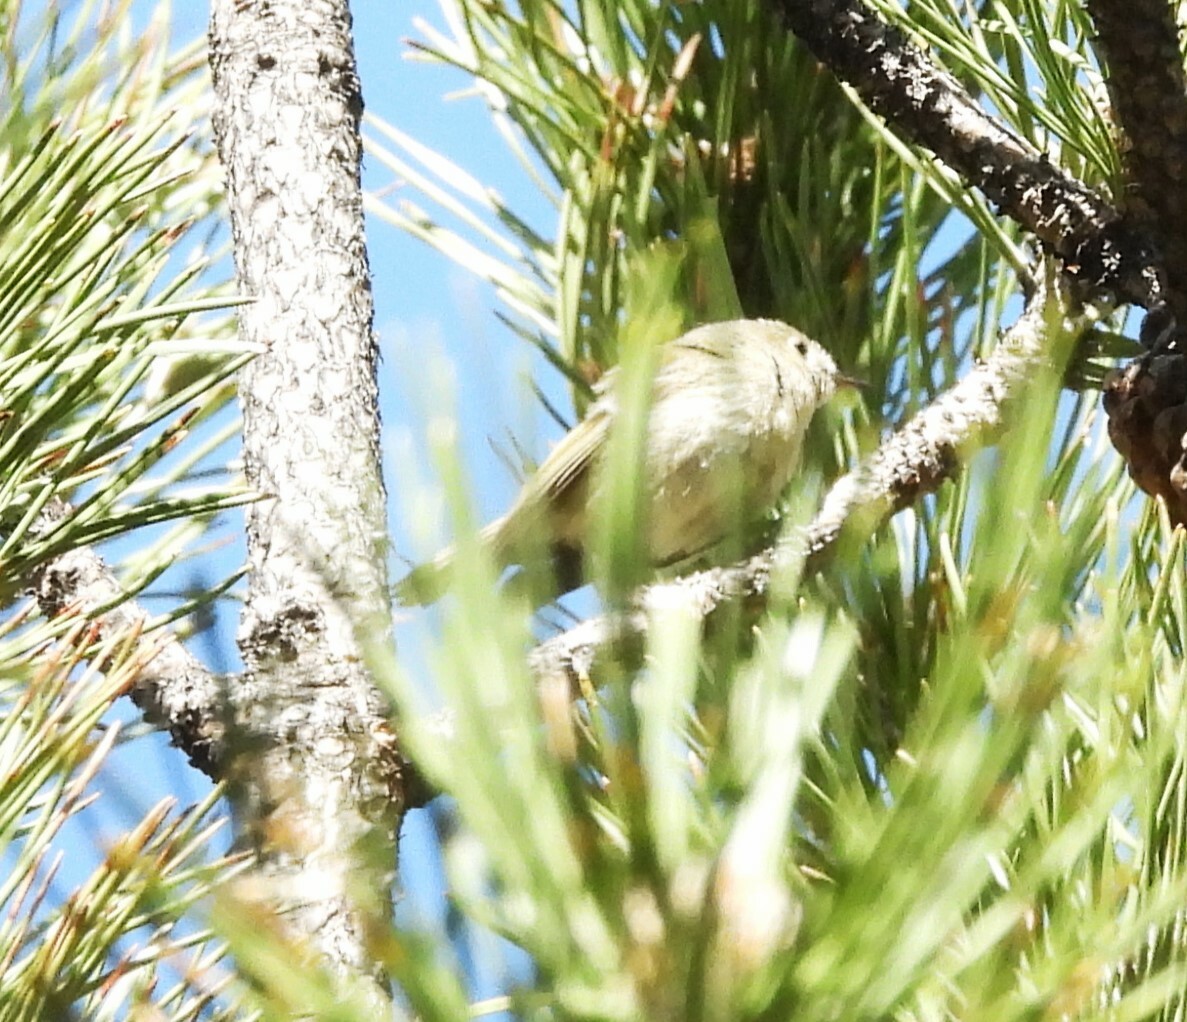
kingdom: Animalia
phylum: Chordata
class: Aves
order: Passeriformes
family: Regulidae
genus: Regulus
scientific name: Regulus calendula
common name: Ruby-crowned kinglet
